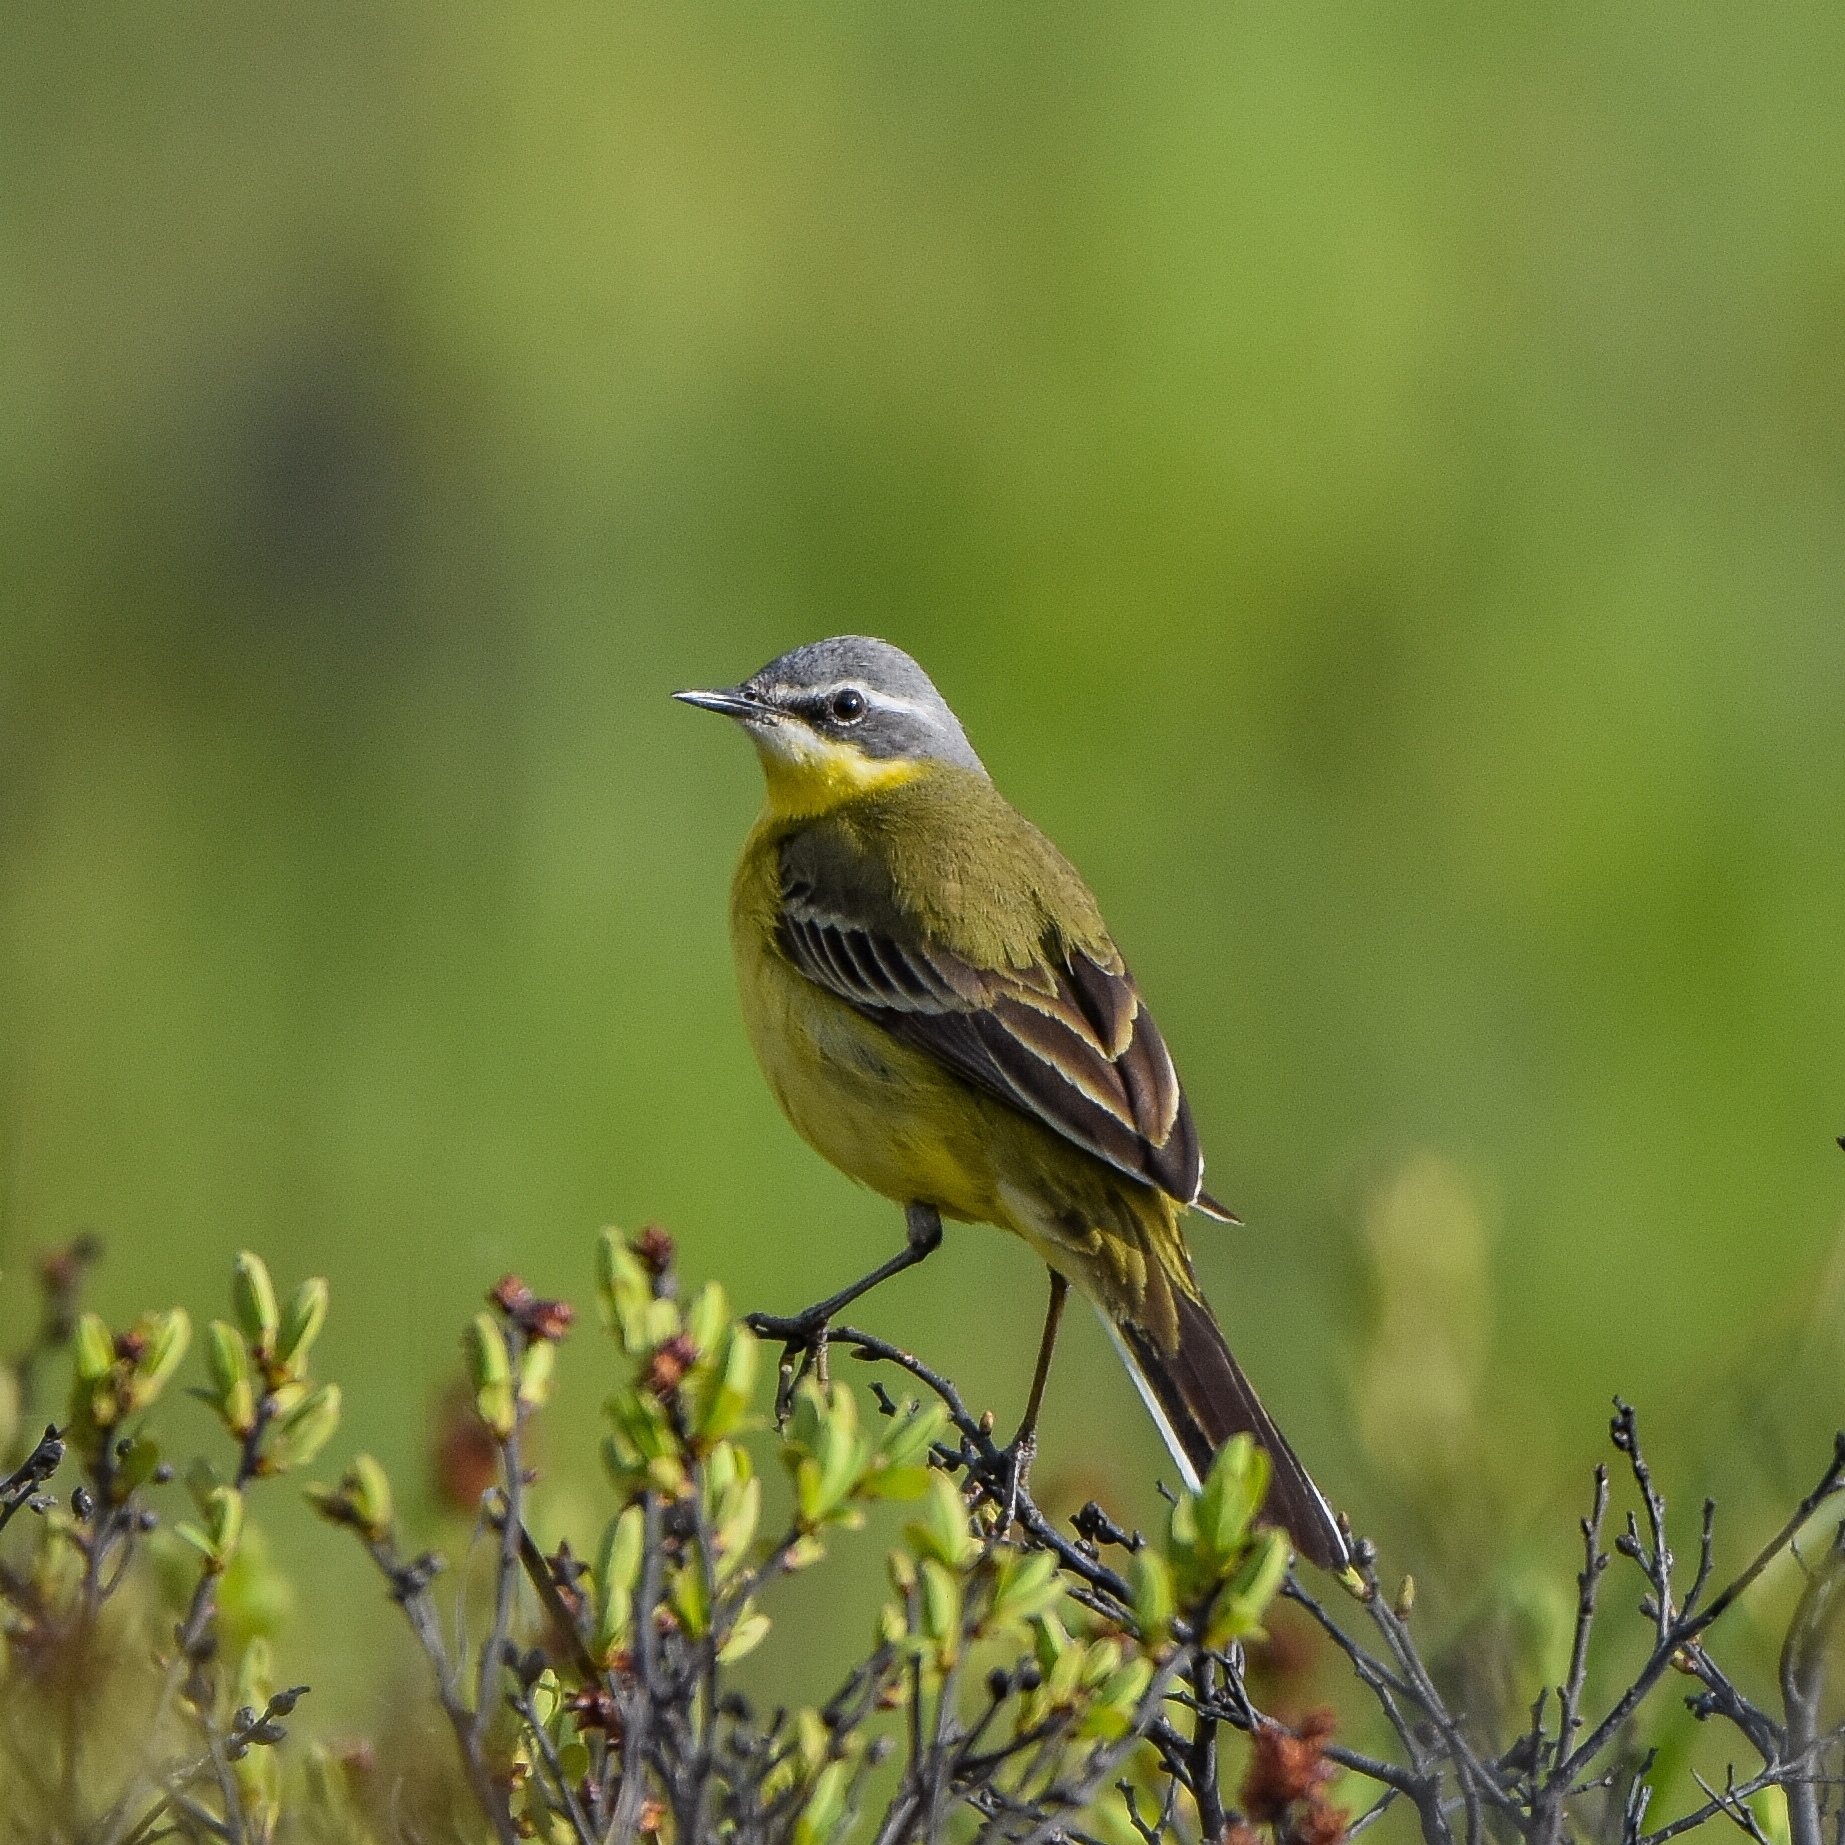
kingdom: Animalia
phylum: Chordata
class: Aves
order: Passeriformes
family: Motacillidae
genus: Motacilla
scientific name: Motacilla tschutschensis
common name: Eastern yellow wagtail
